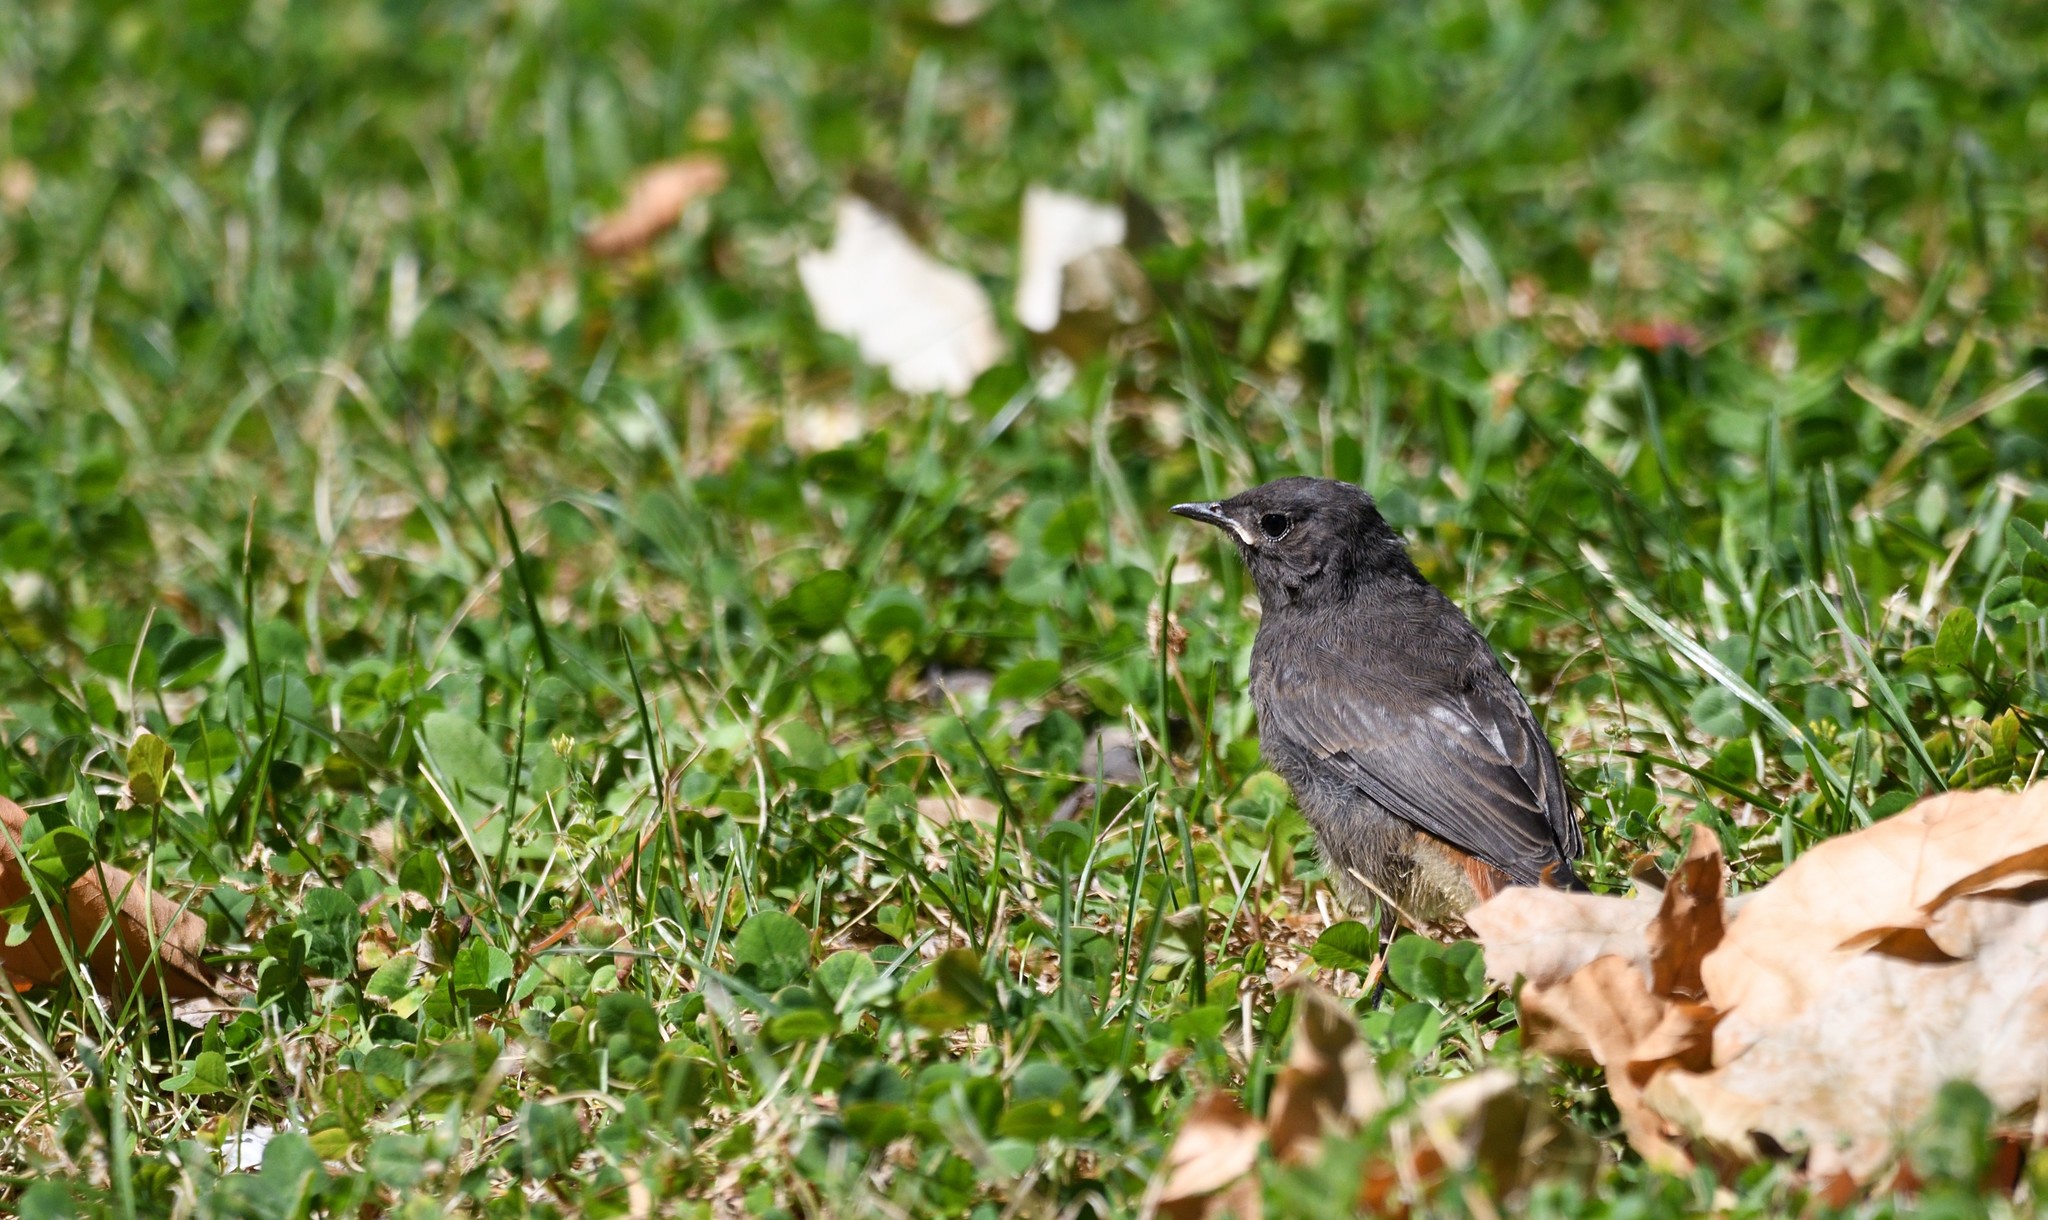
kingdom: Animalia
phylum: Chordata
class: Aves
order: Passeriformes
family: Muscicapidae
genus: Phoenicurus
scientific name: Phoenicurus ochruros
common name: Black redstart
